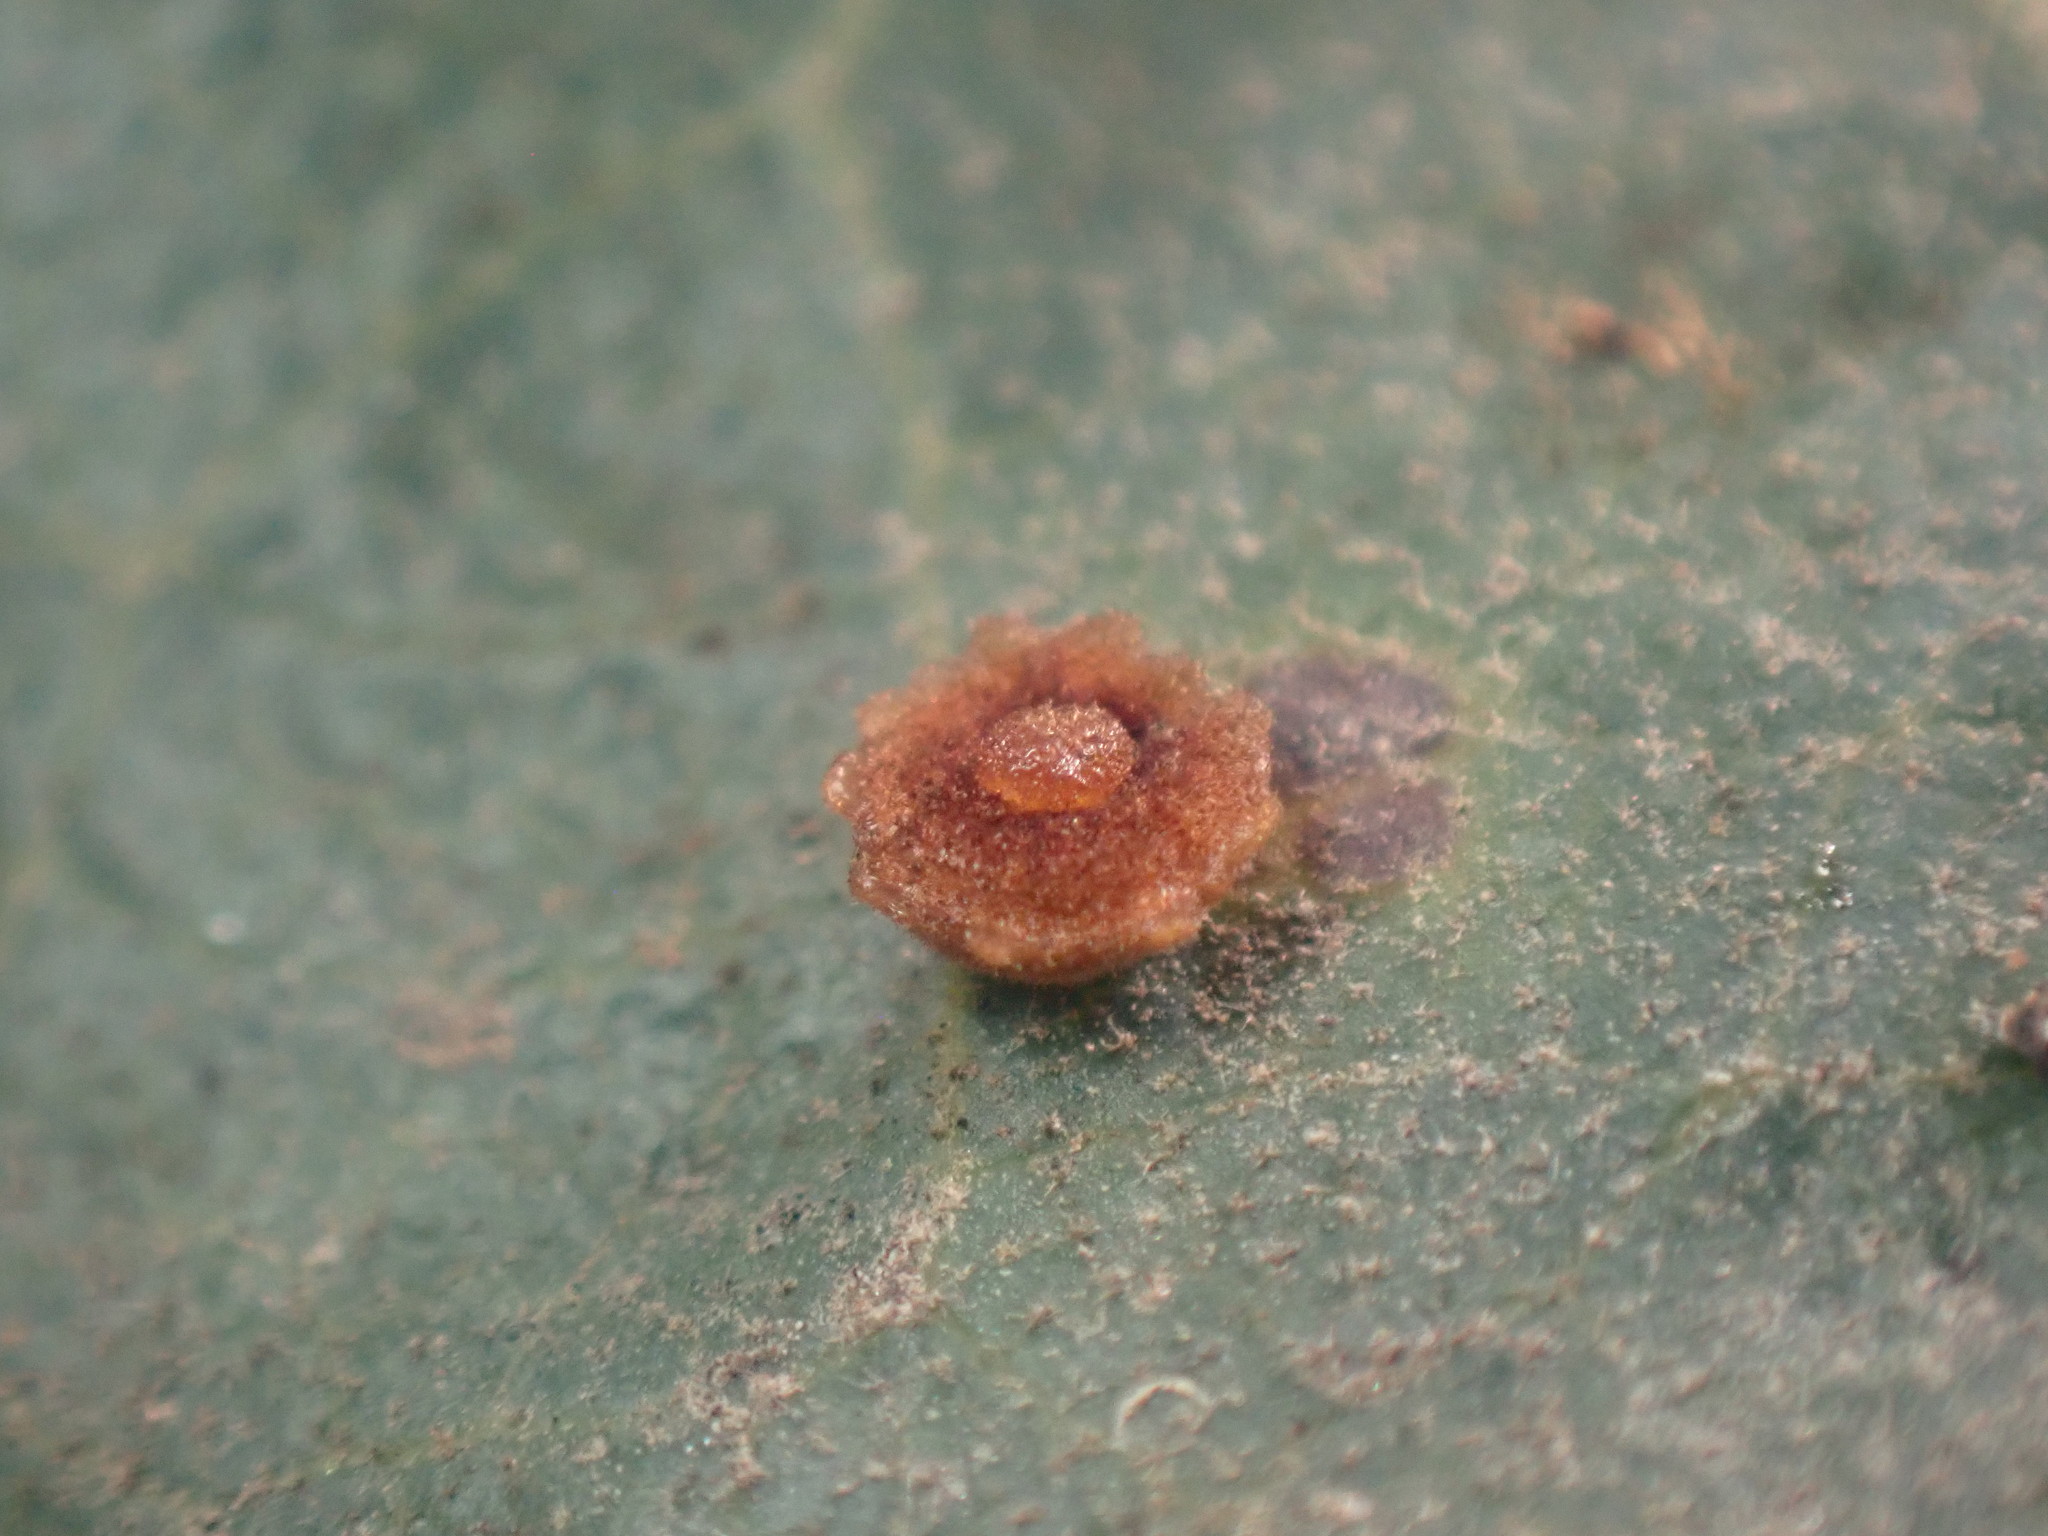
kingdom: Animalia
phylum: Arthropoda
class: Insecta
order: Hymenoptera
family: Cynipidae
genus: Andricus
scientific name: Andricus
